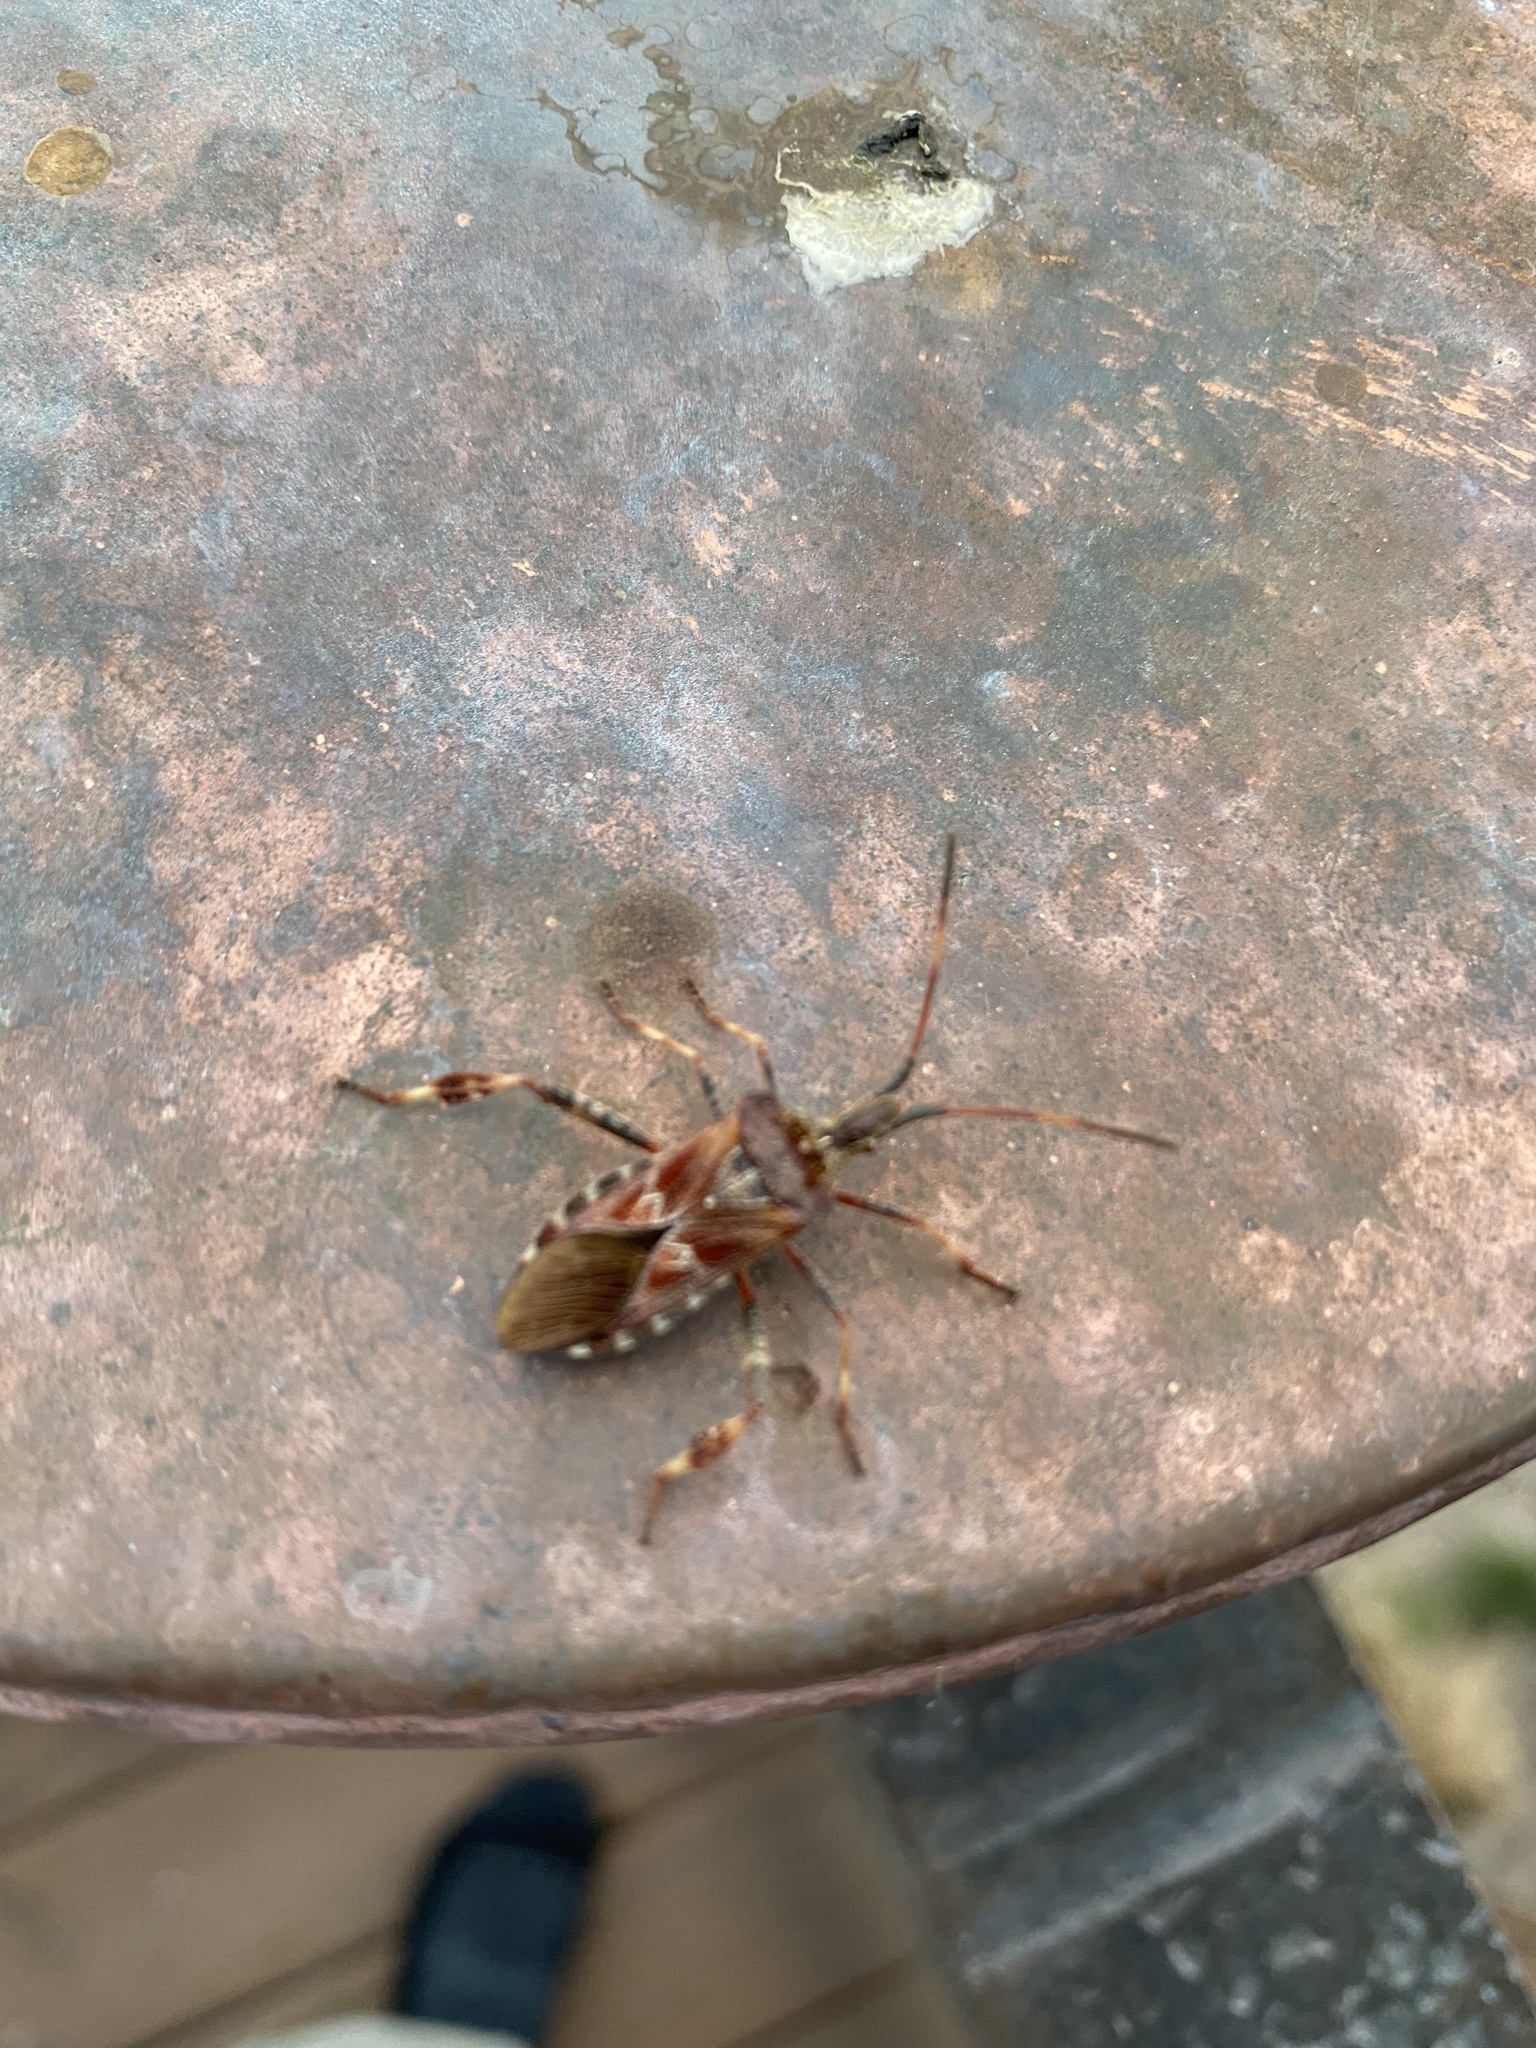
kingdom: Animalia
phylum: Arthropoda
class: Insecta
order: Hemiptera
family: Coreidae
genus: Leptoglossus
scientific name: Leptoglossus occidentalis
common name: Western conifer-seed bug
